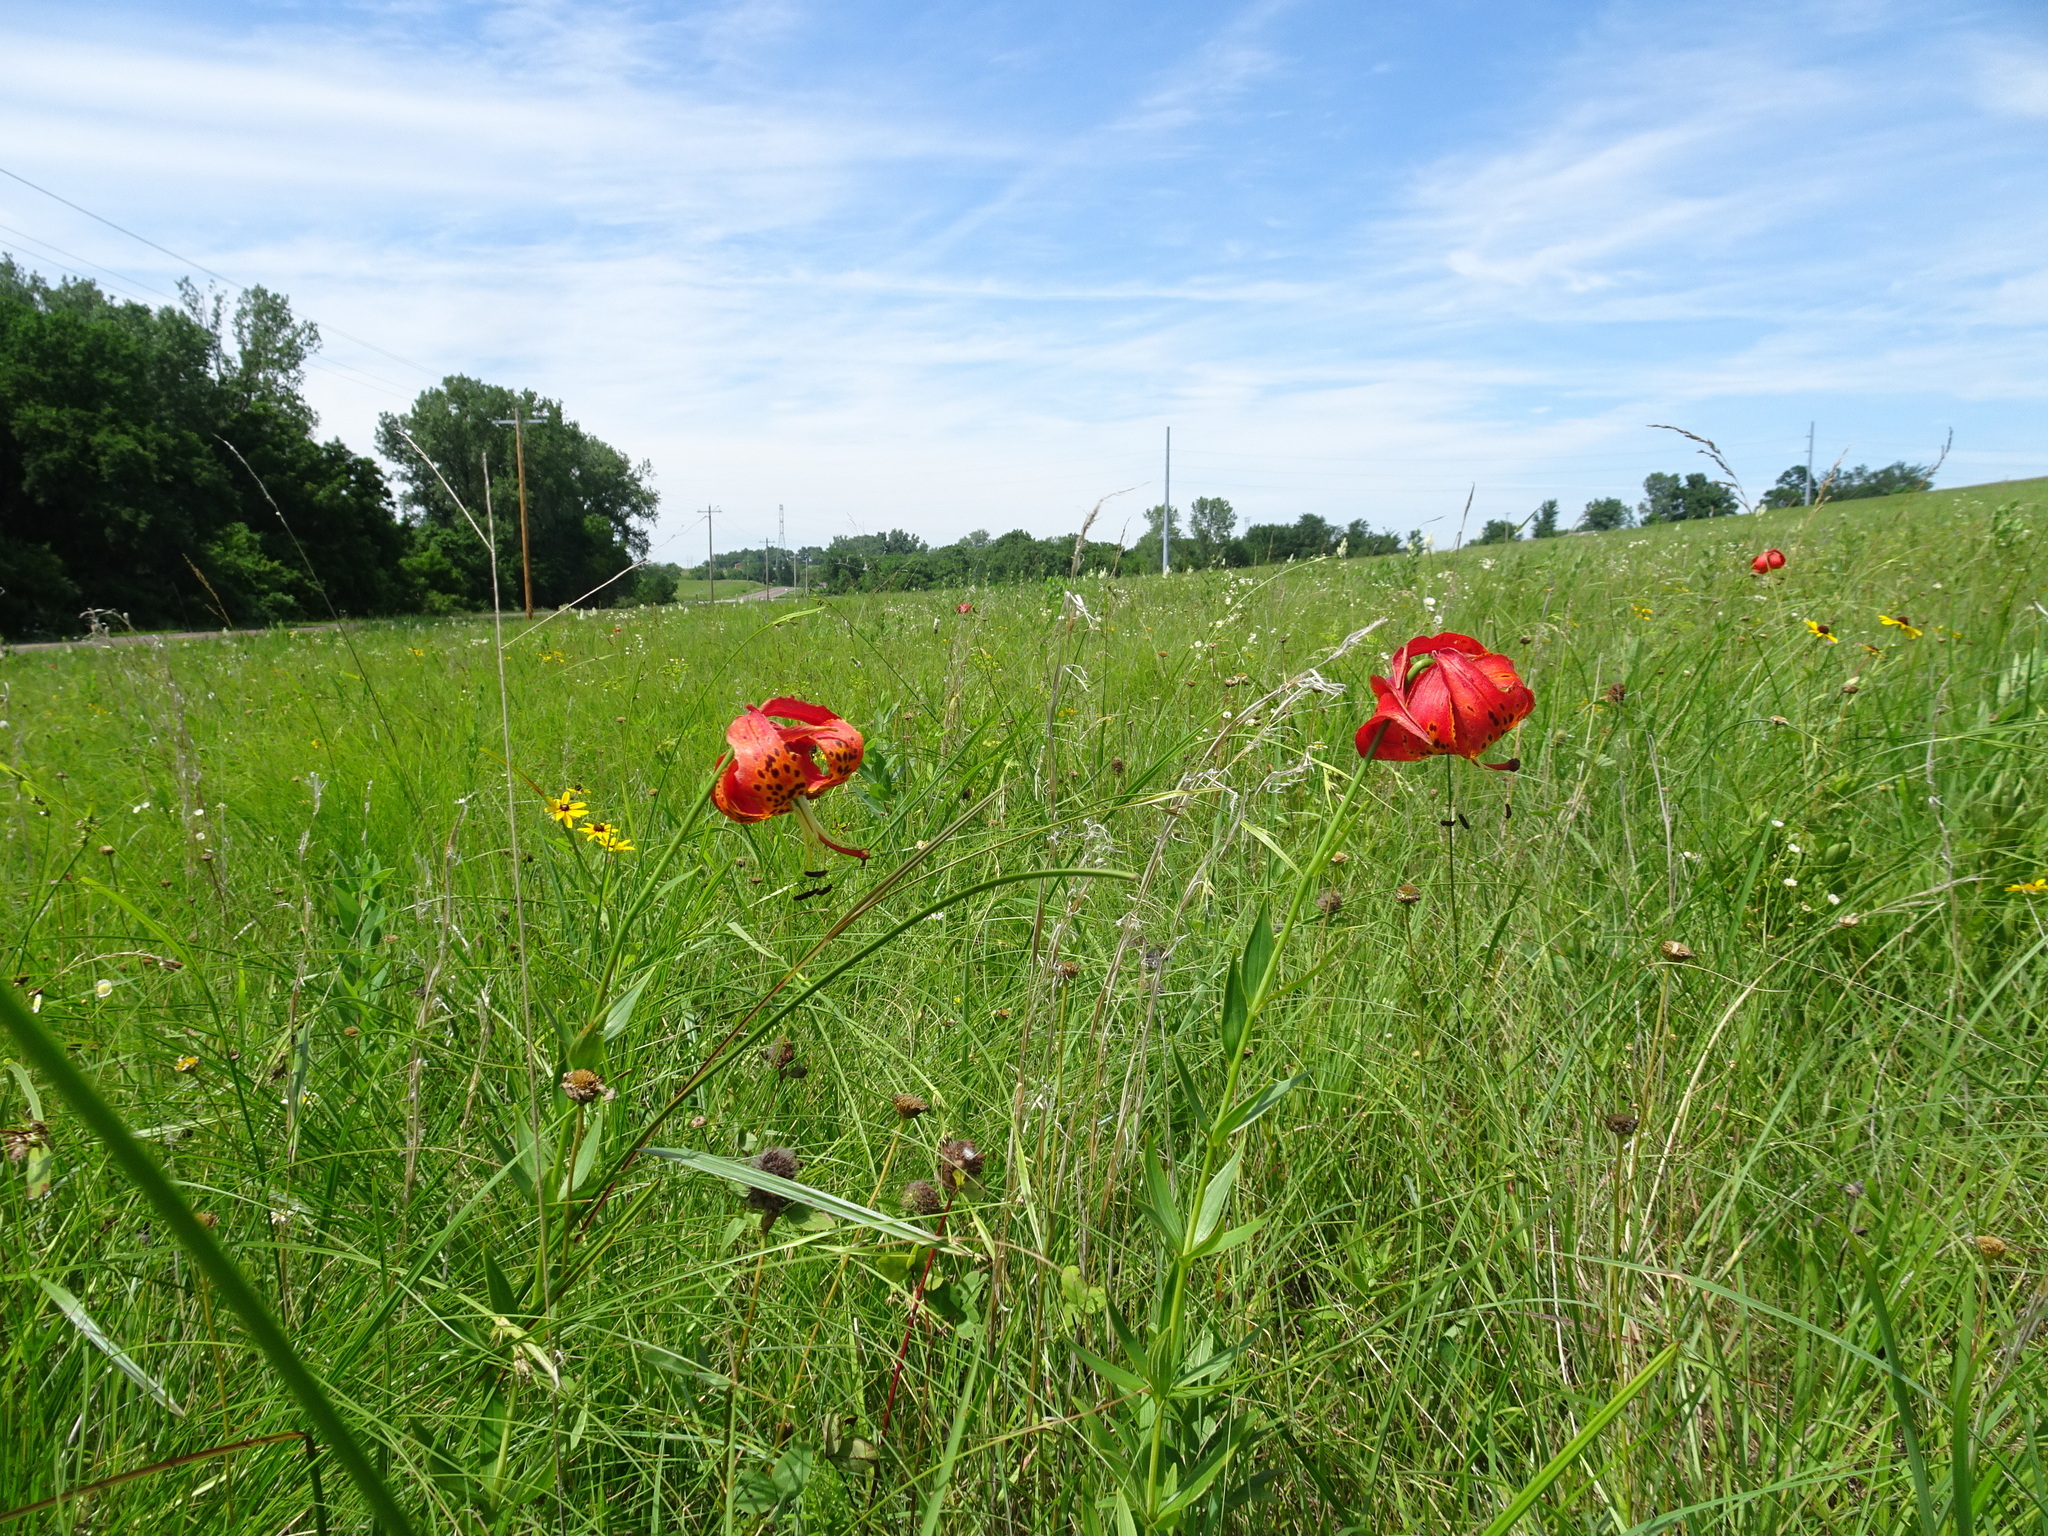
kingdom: Plantae
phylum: Tracheophyta
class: Liliopsida
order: Liliales
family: Liliaceae
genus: Lilium
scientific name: Lilium michiganense
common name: Michigan lily
